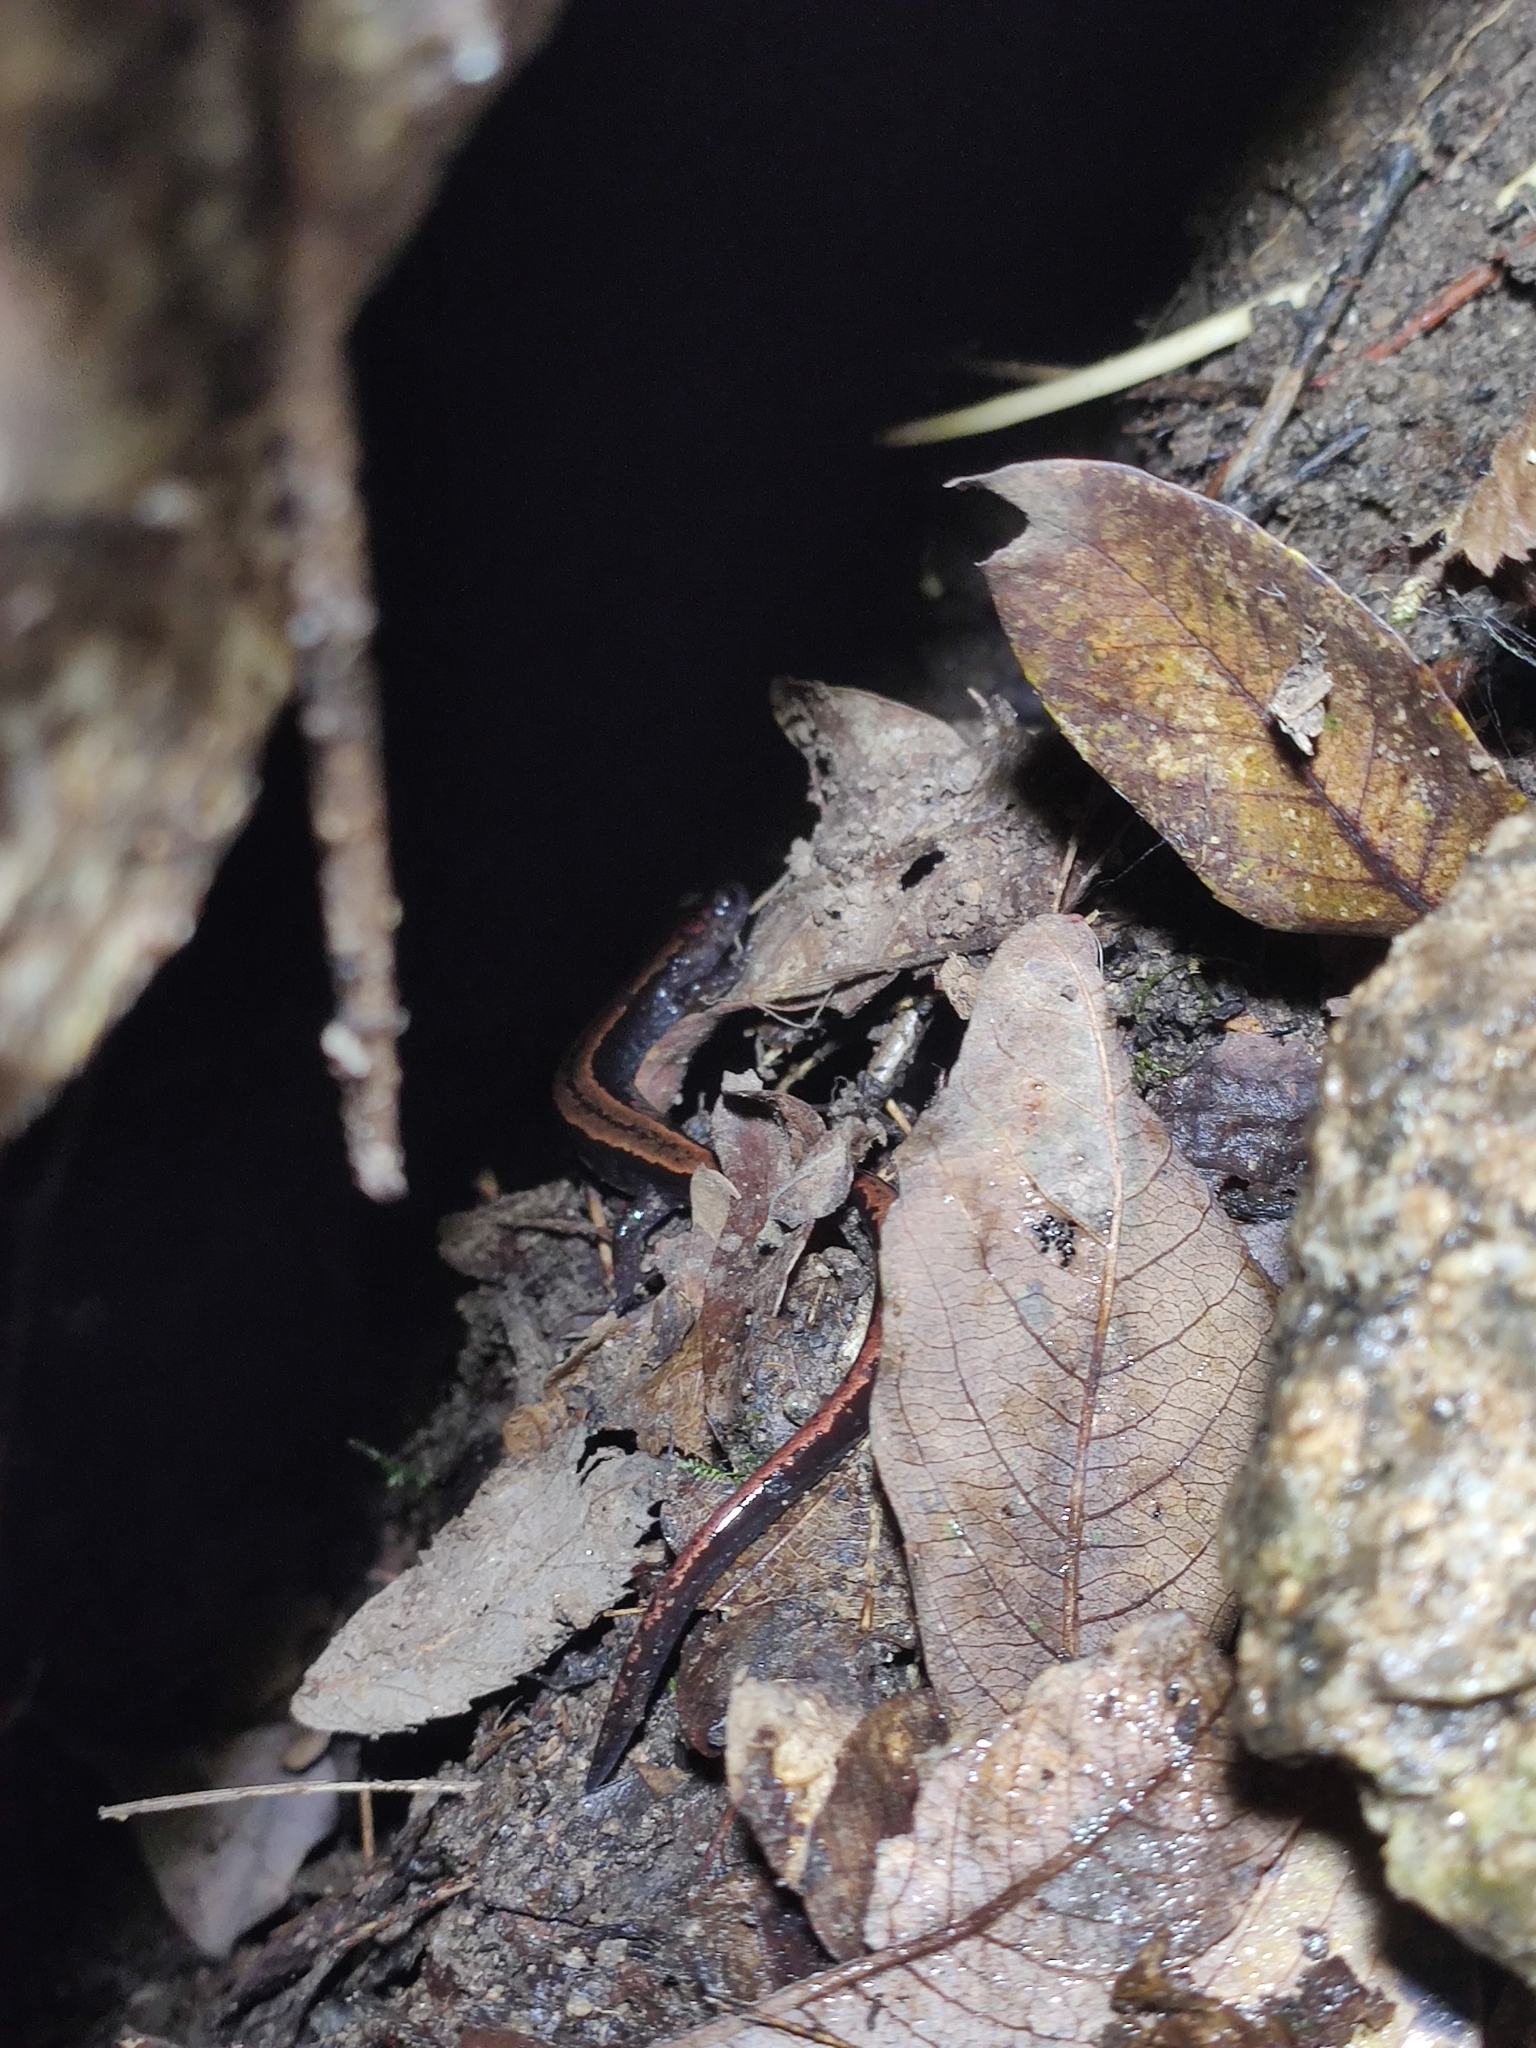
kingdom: Animalia
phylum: Chordata
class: Amphibia
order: Caudata
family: Salamandridae
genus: Chioglossa
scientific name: Chioglossa lusitanica
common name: Gold-striped salamander
